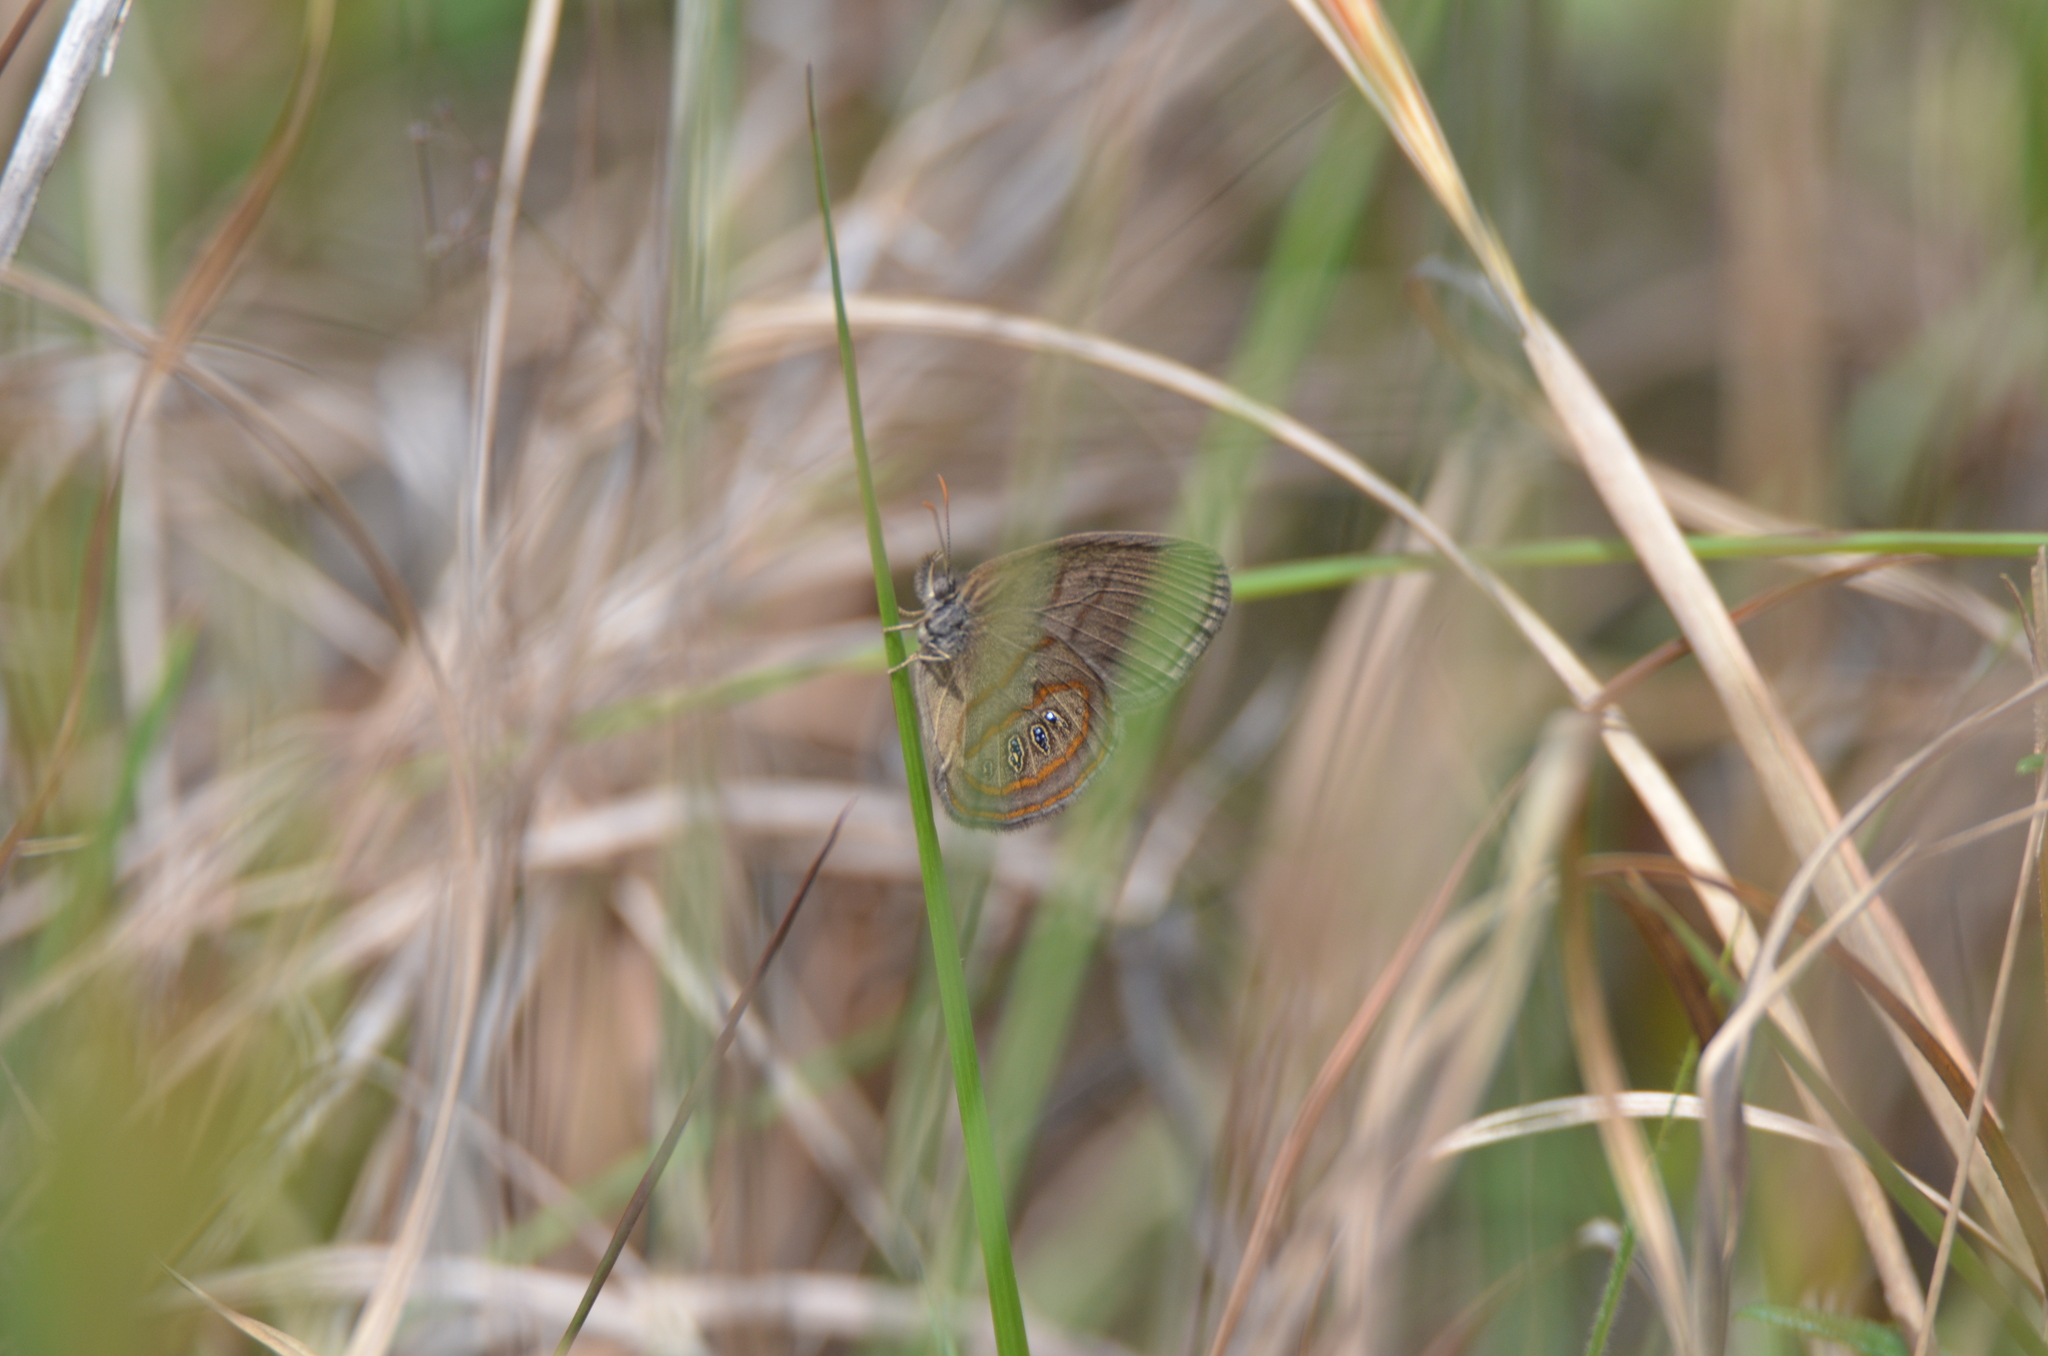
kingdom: Animalia
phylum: Arthropoda
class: Insecta
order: Lepidoptera
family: Nymphalidae
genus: Euptychia
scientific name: Euptychia phocion
